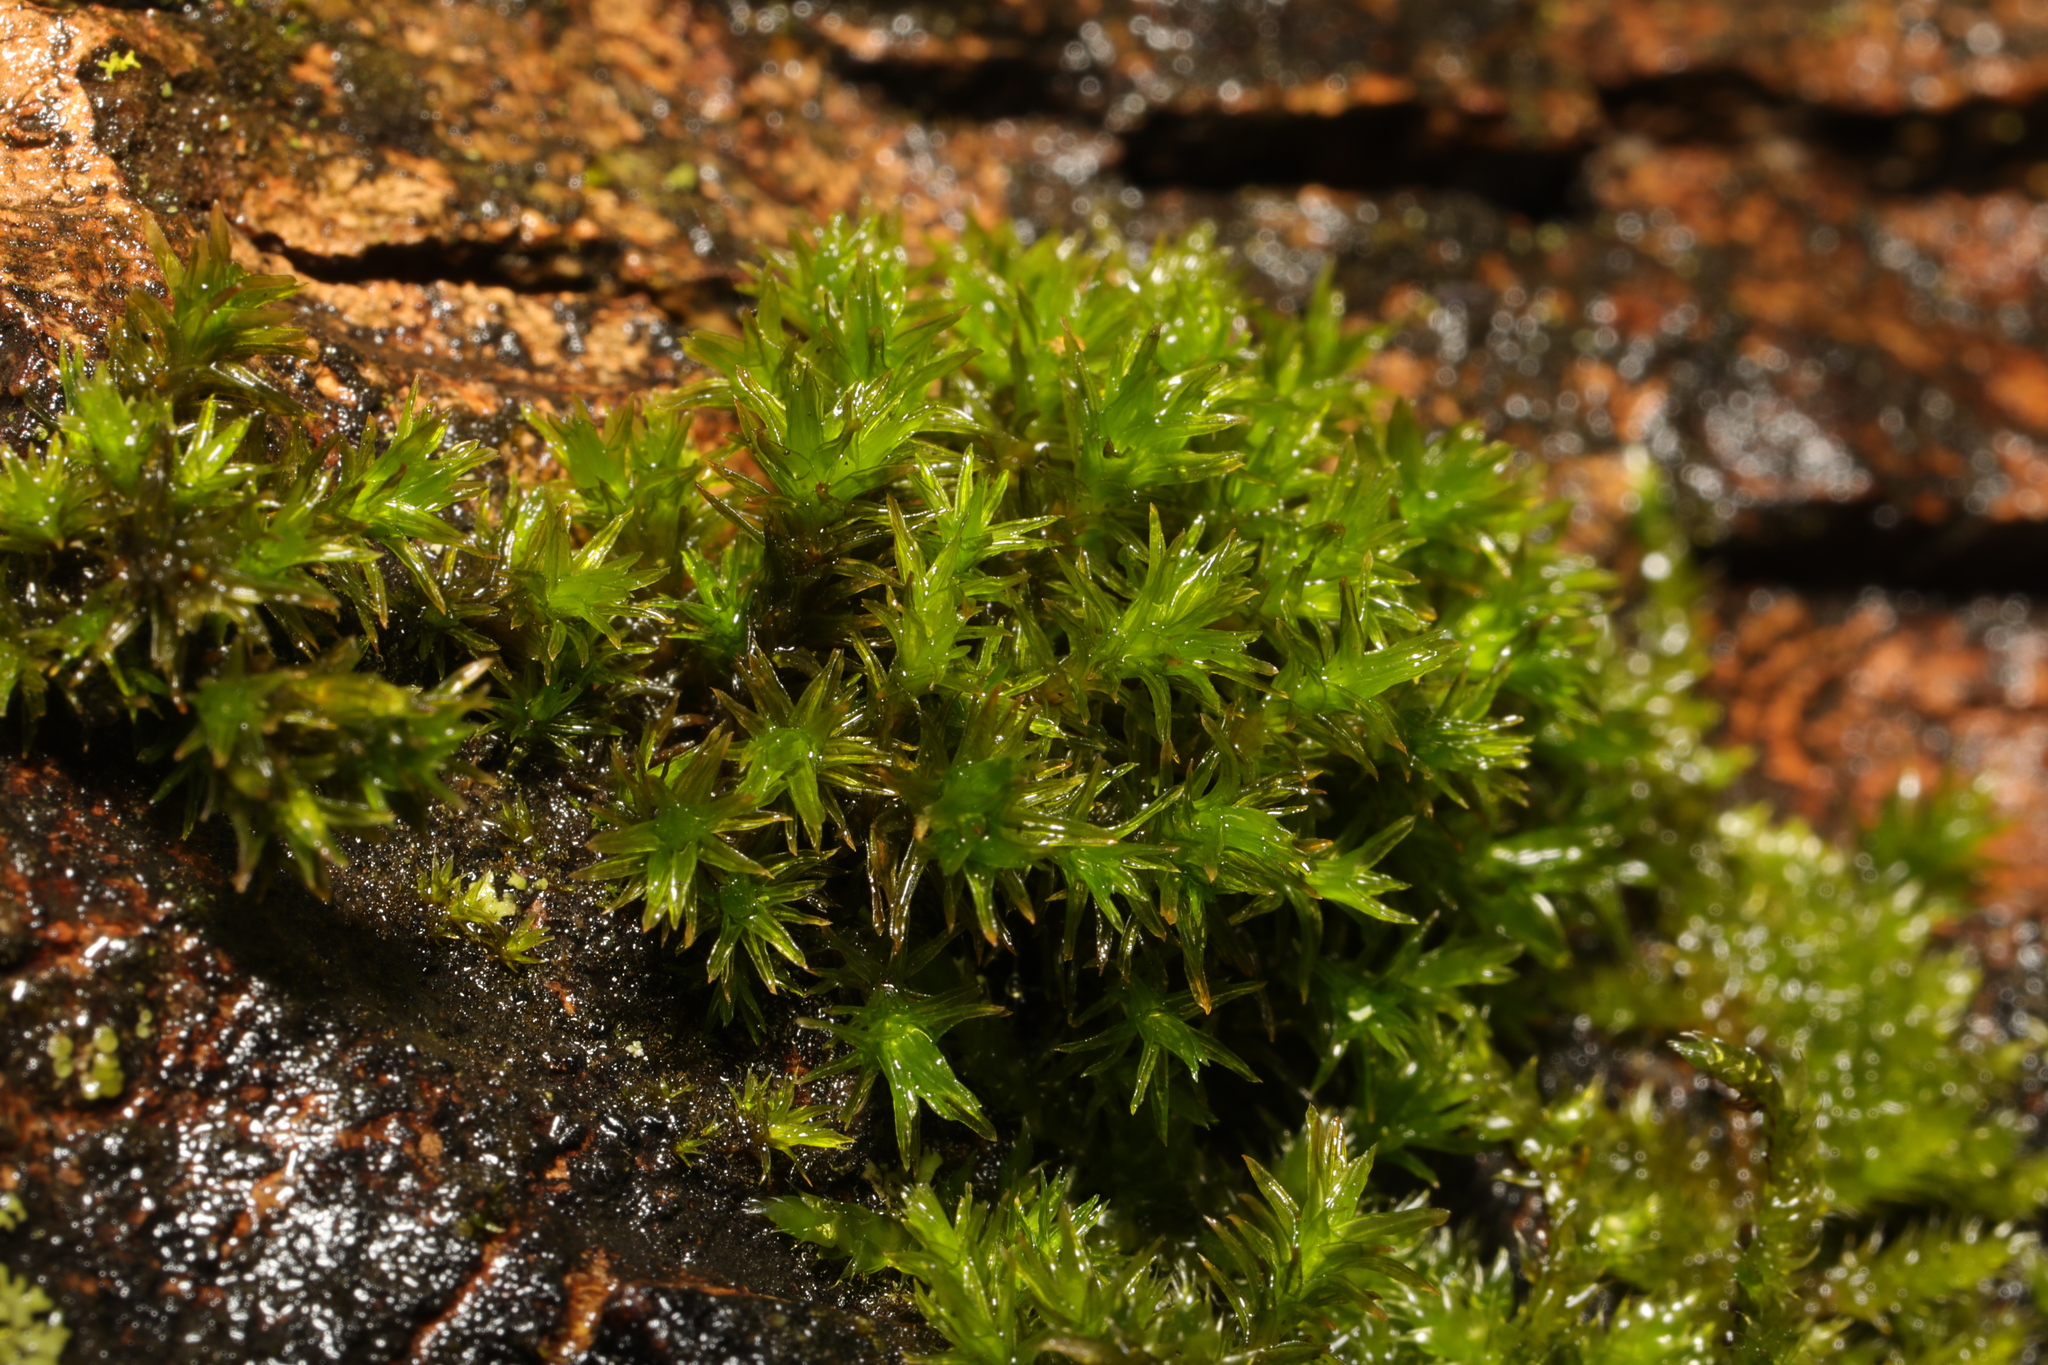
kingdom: Plantae
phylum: Bryophyta
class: Bryopsida
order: Orthotrichales
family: Orthotrichaceae
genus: Lewinskya
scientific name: Lewinskya affinis
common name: Wood bristle-moss
